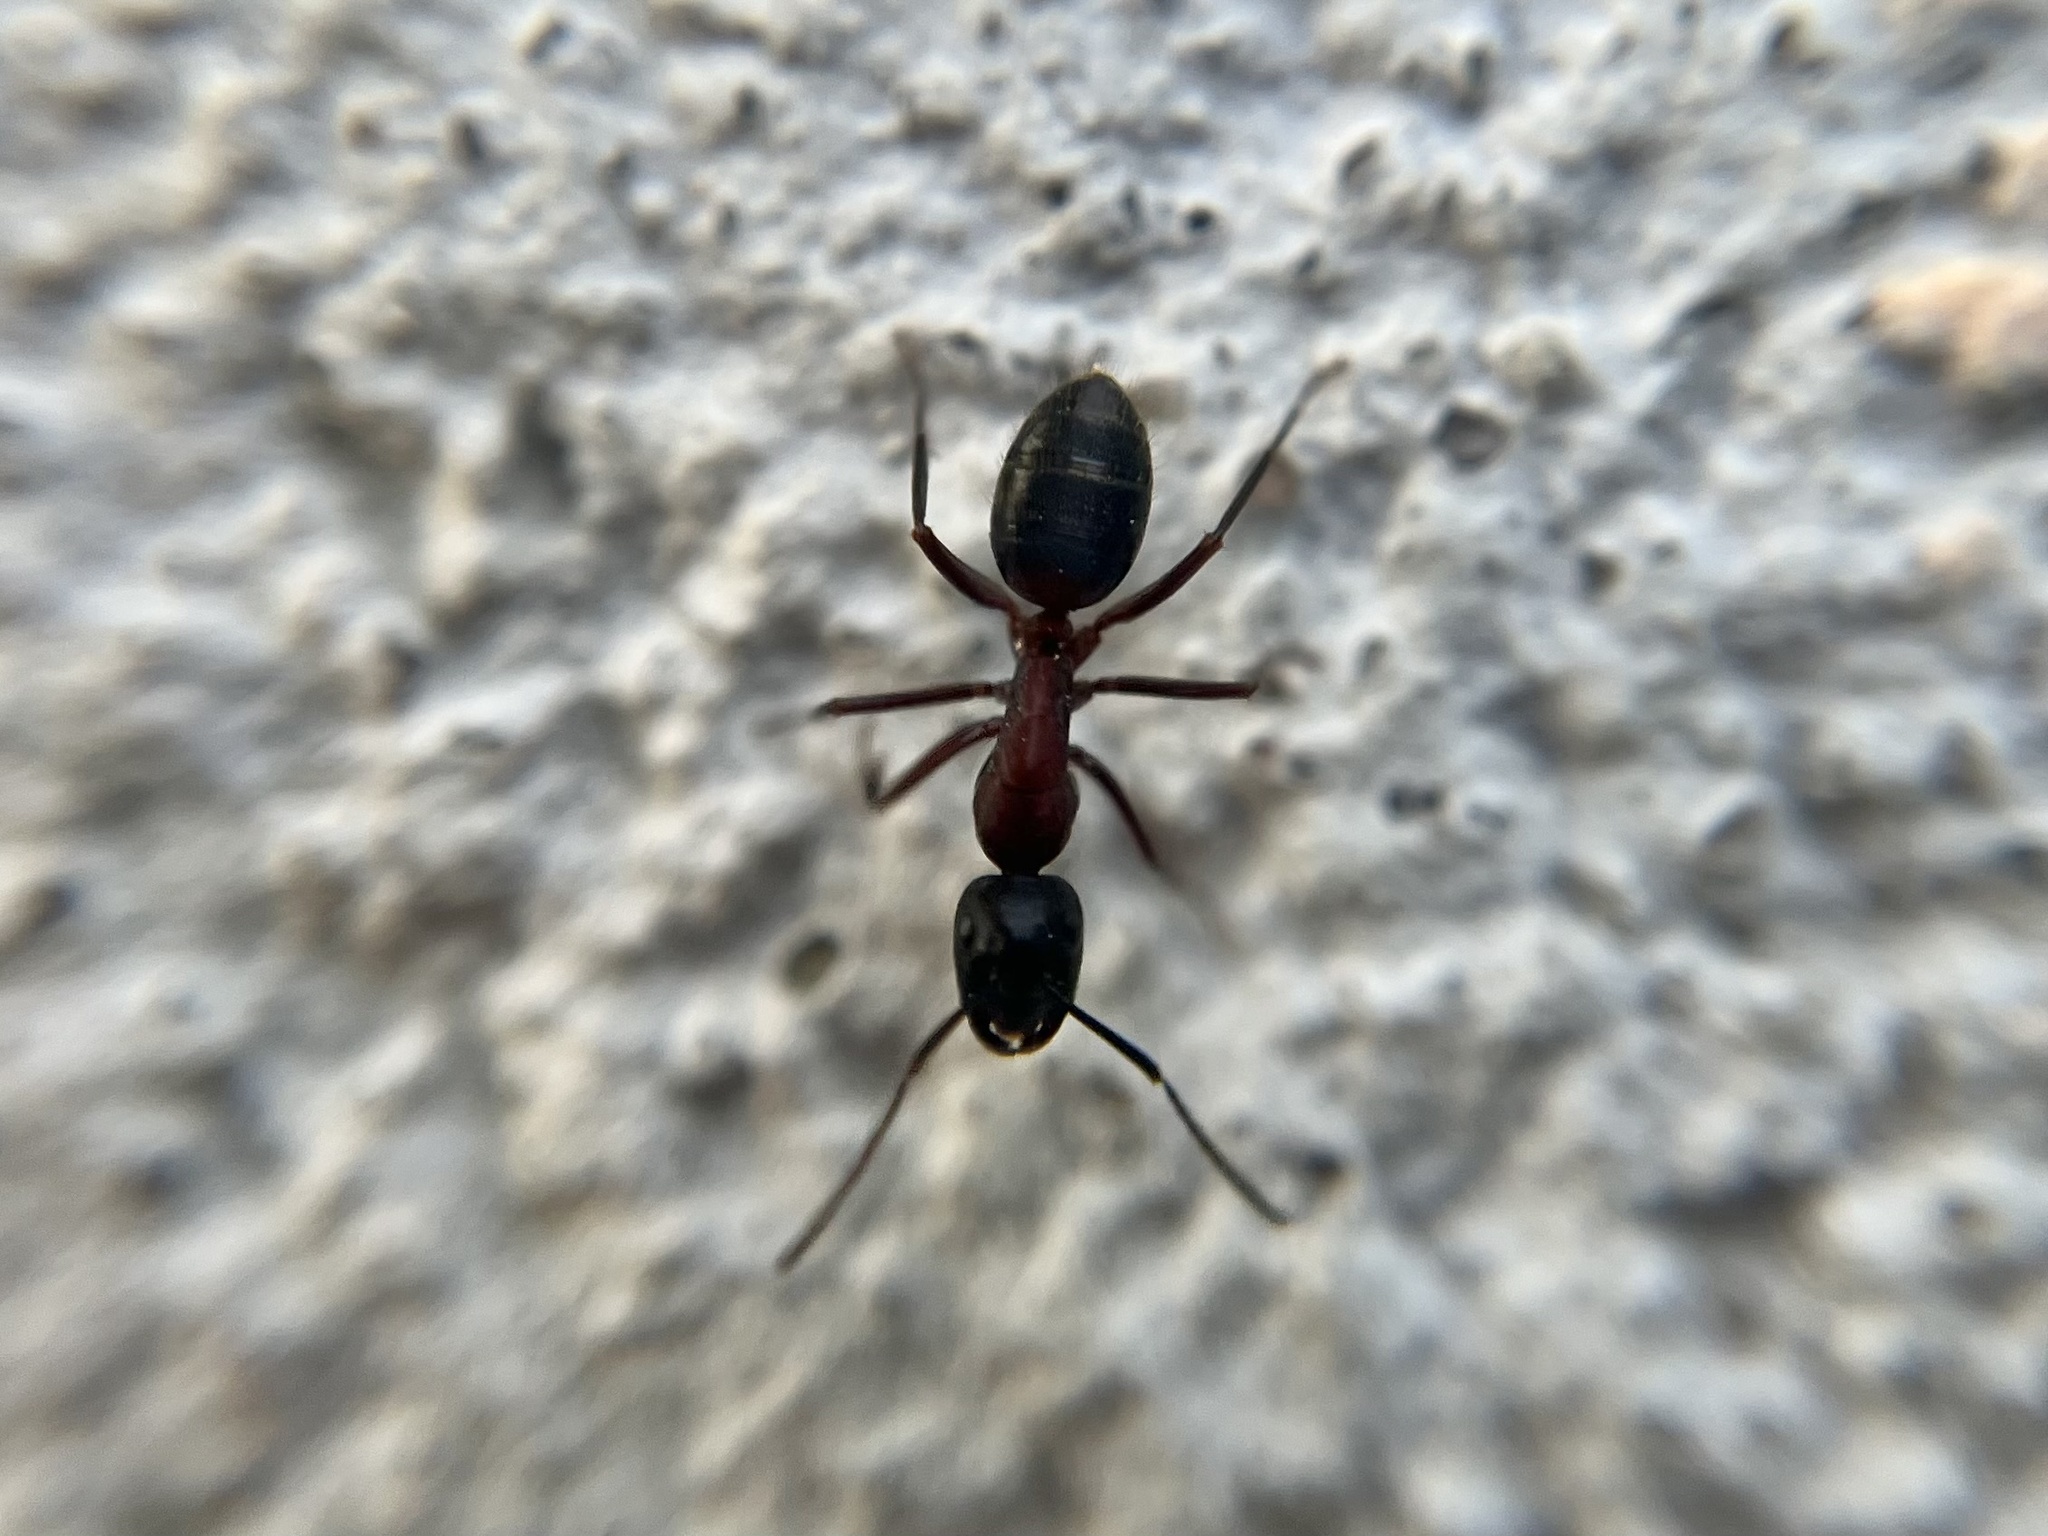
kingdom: Animalia
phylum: Arthropoda
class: Insecta
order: Hymenoptera
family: Formicidae
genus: Camponotus
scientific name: Camponotus ligniperdus
